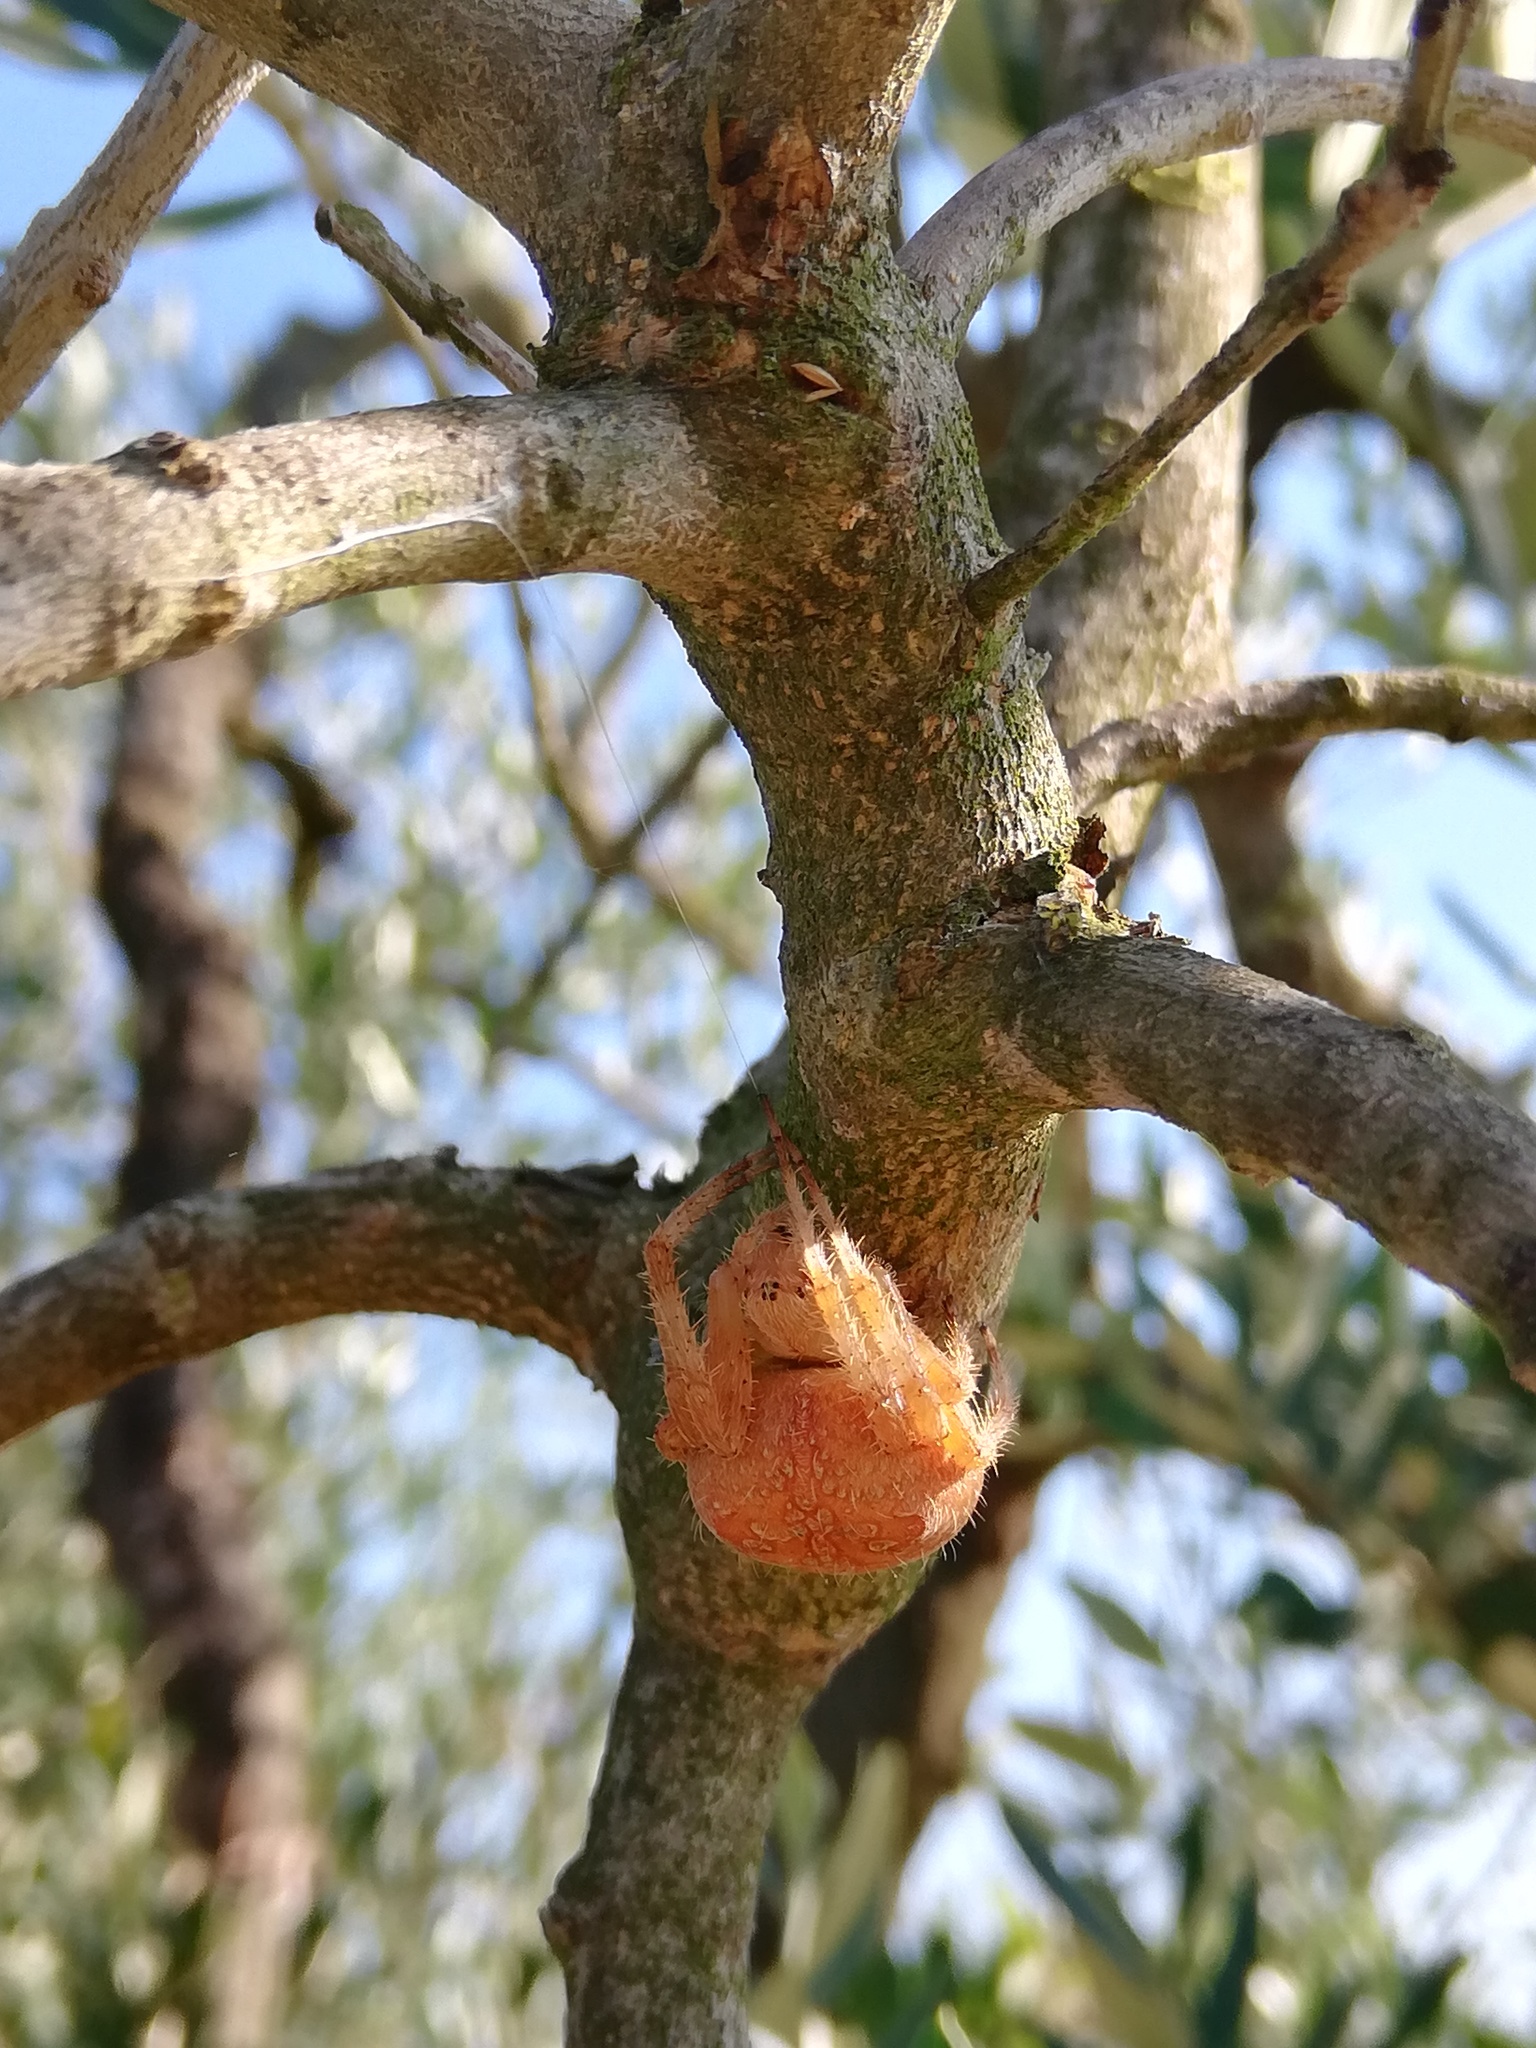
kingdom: Animalia
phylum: Arthropoda
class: Arachnida
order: Araneae
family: Araneidae
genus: Araneus
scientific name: Araneus diadematus
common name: Cross orbweaver
